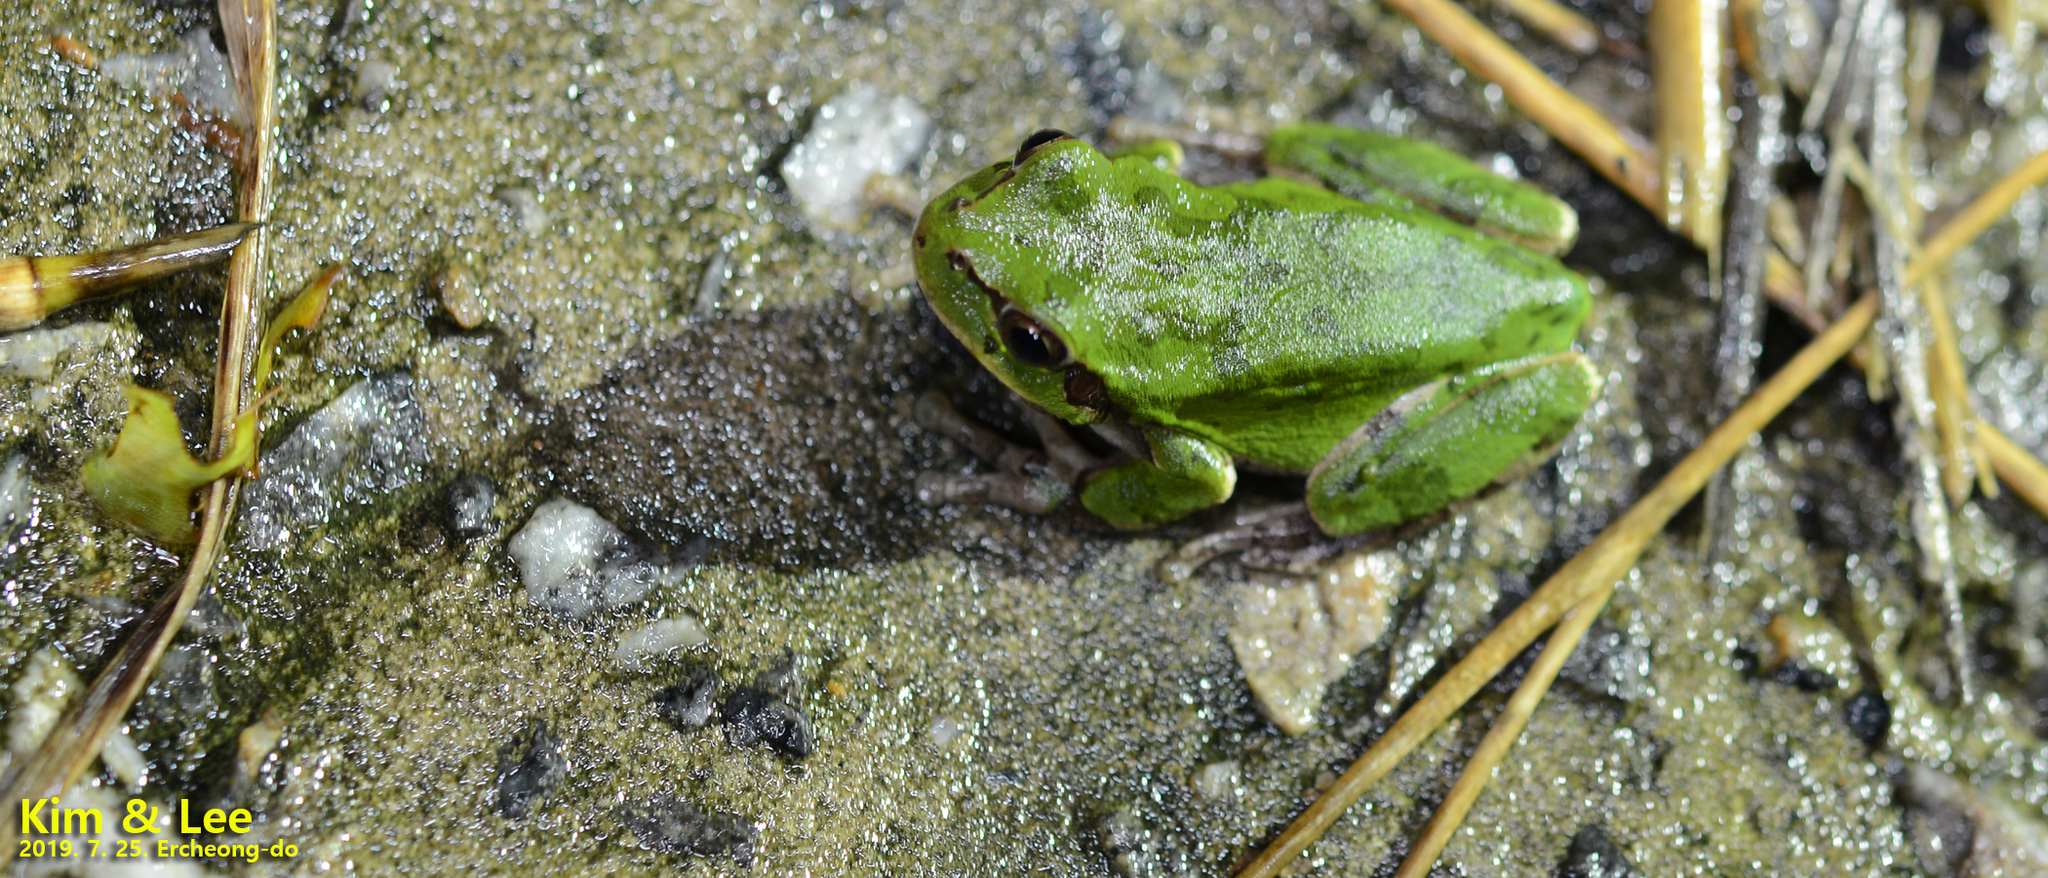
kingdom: Animalia
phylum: Chordata
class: Amphibia
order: Anura
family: Hylidae
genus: Dryophytes
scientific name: Dryophytes japonicus
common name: Japanese treefrog
